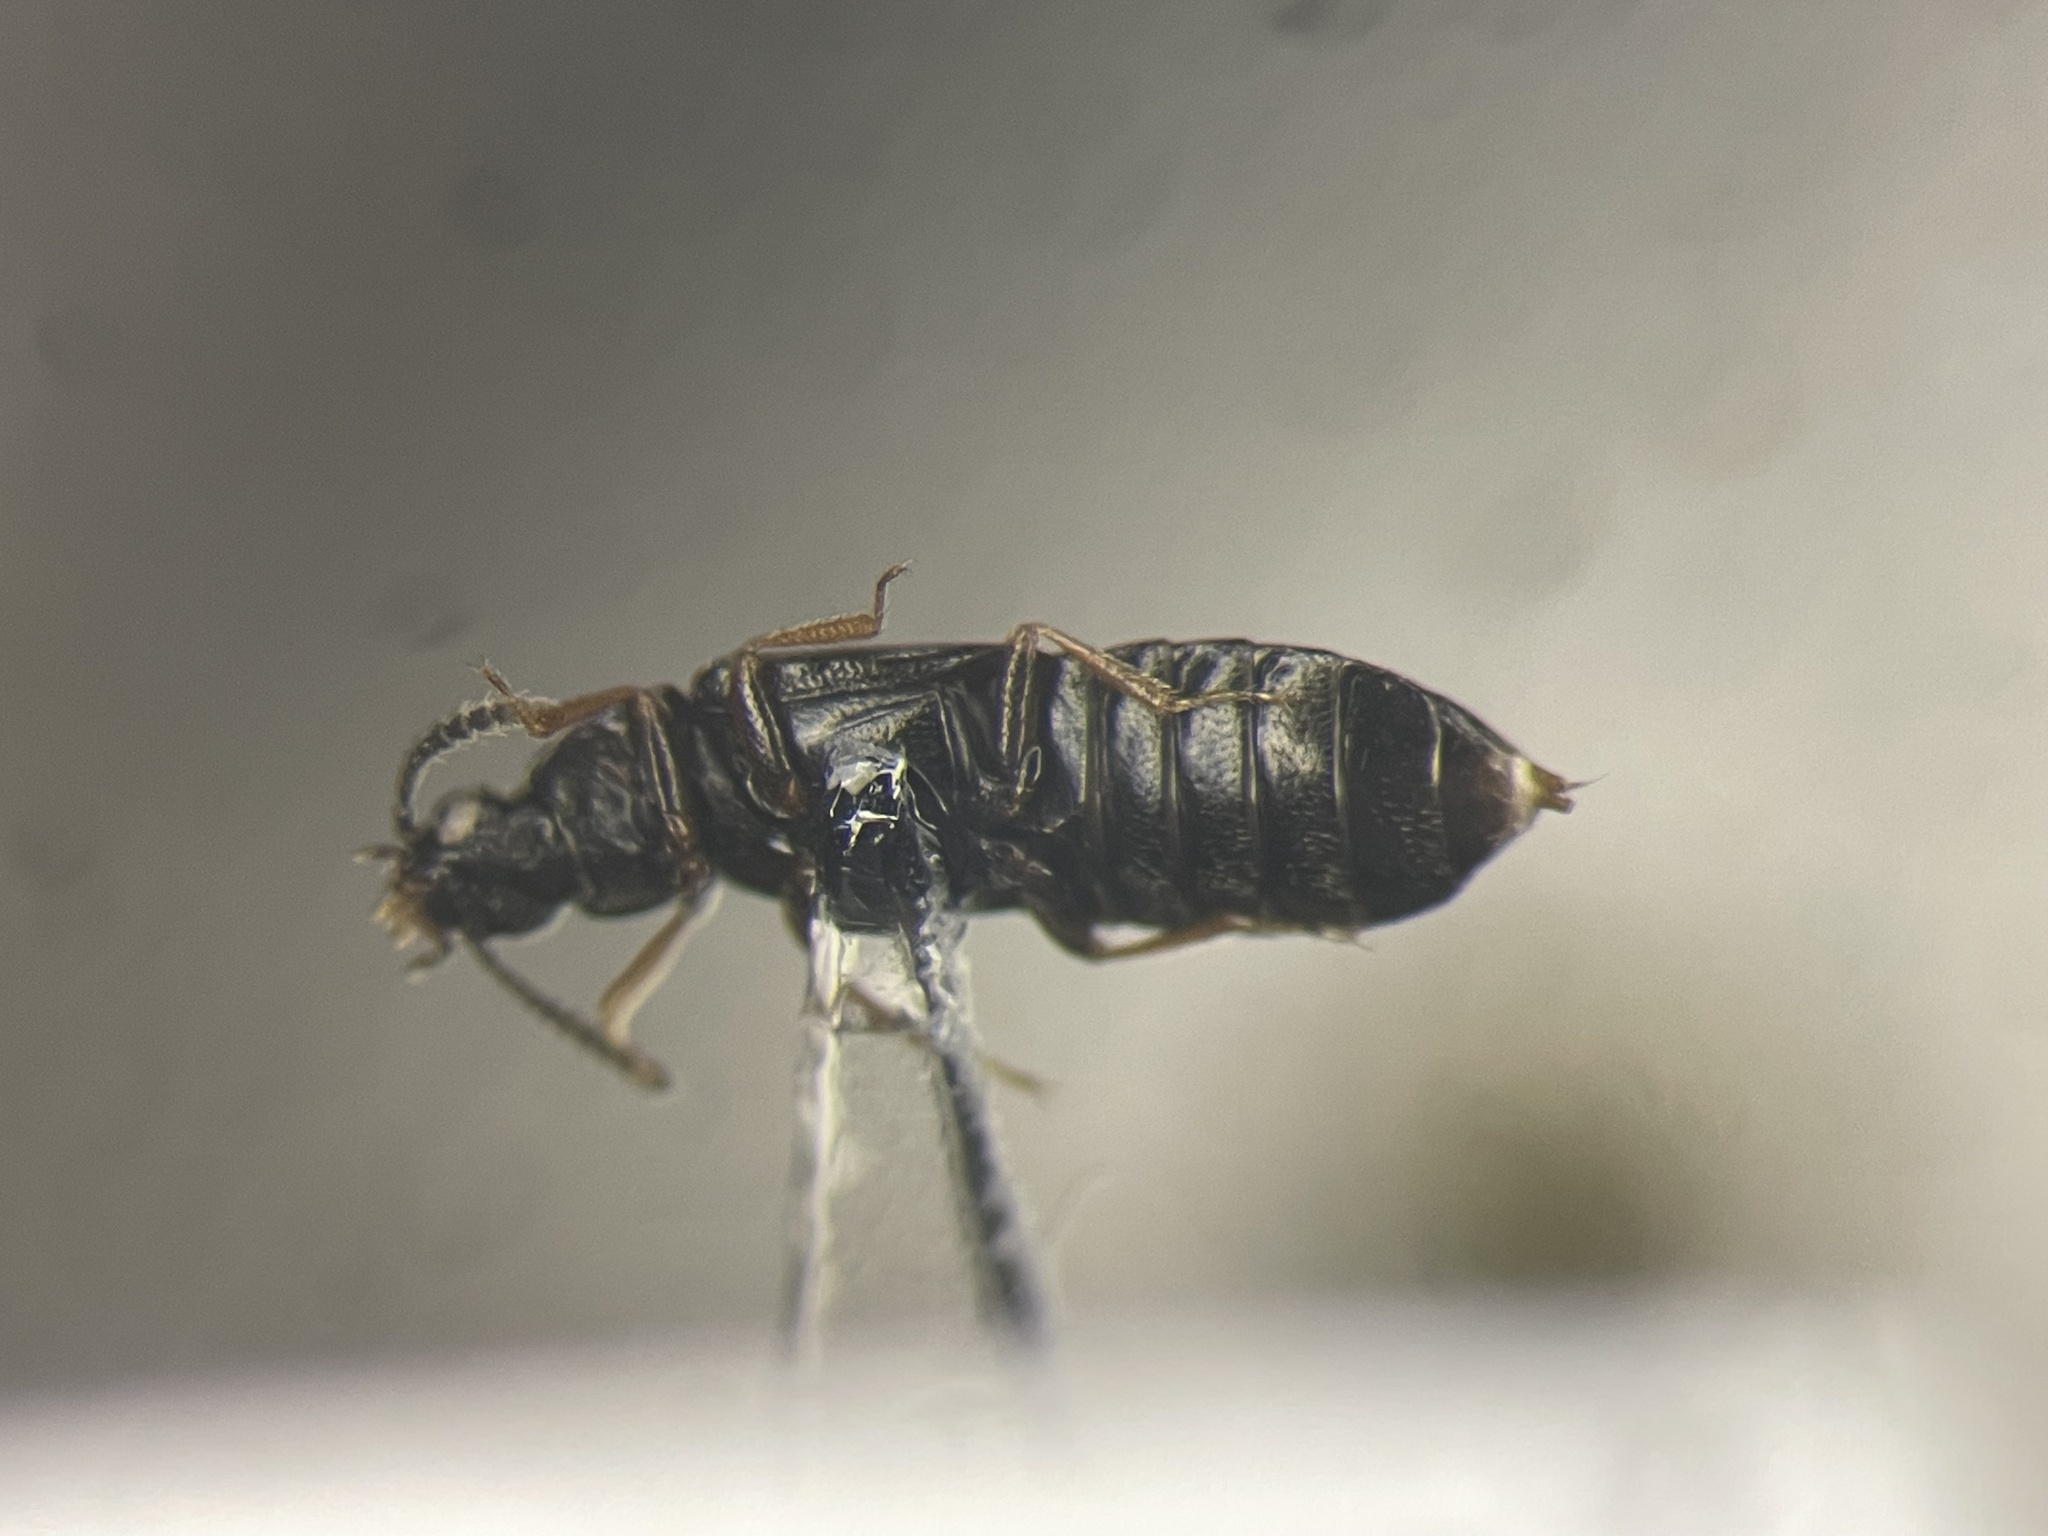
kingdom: Animalia
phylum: Arthropoda
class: Insecta
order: Coleoptera
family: Staphylinidae
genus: Phyllodrepa
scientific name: Phyllodrepa floralis
